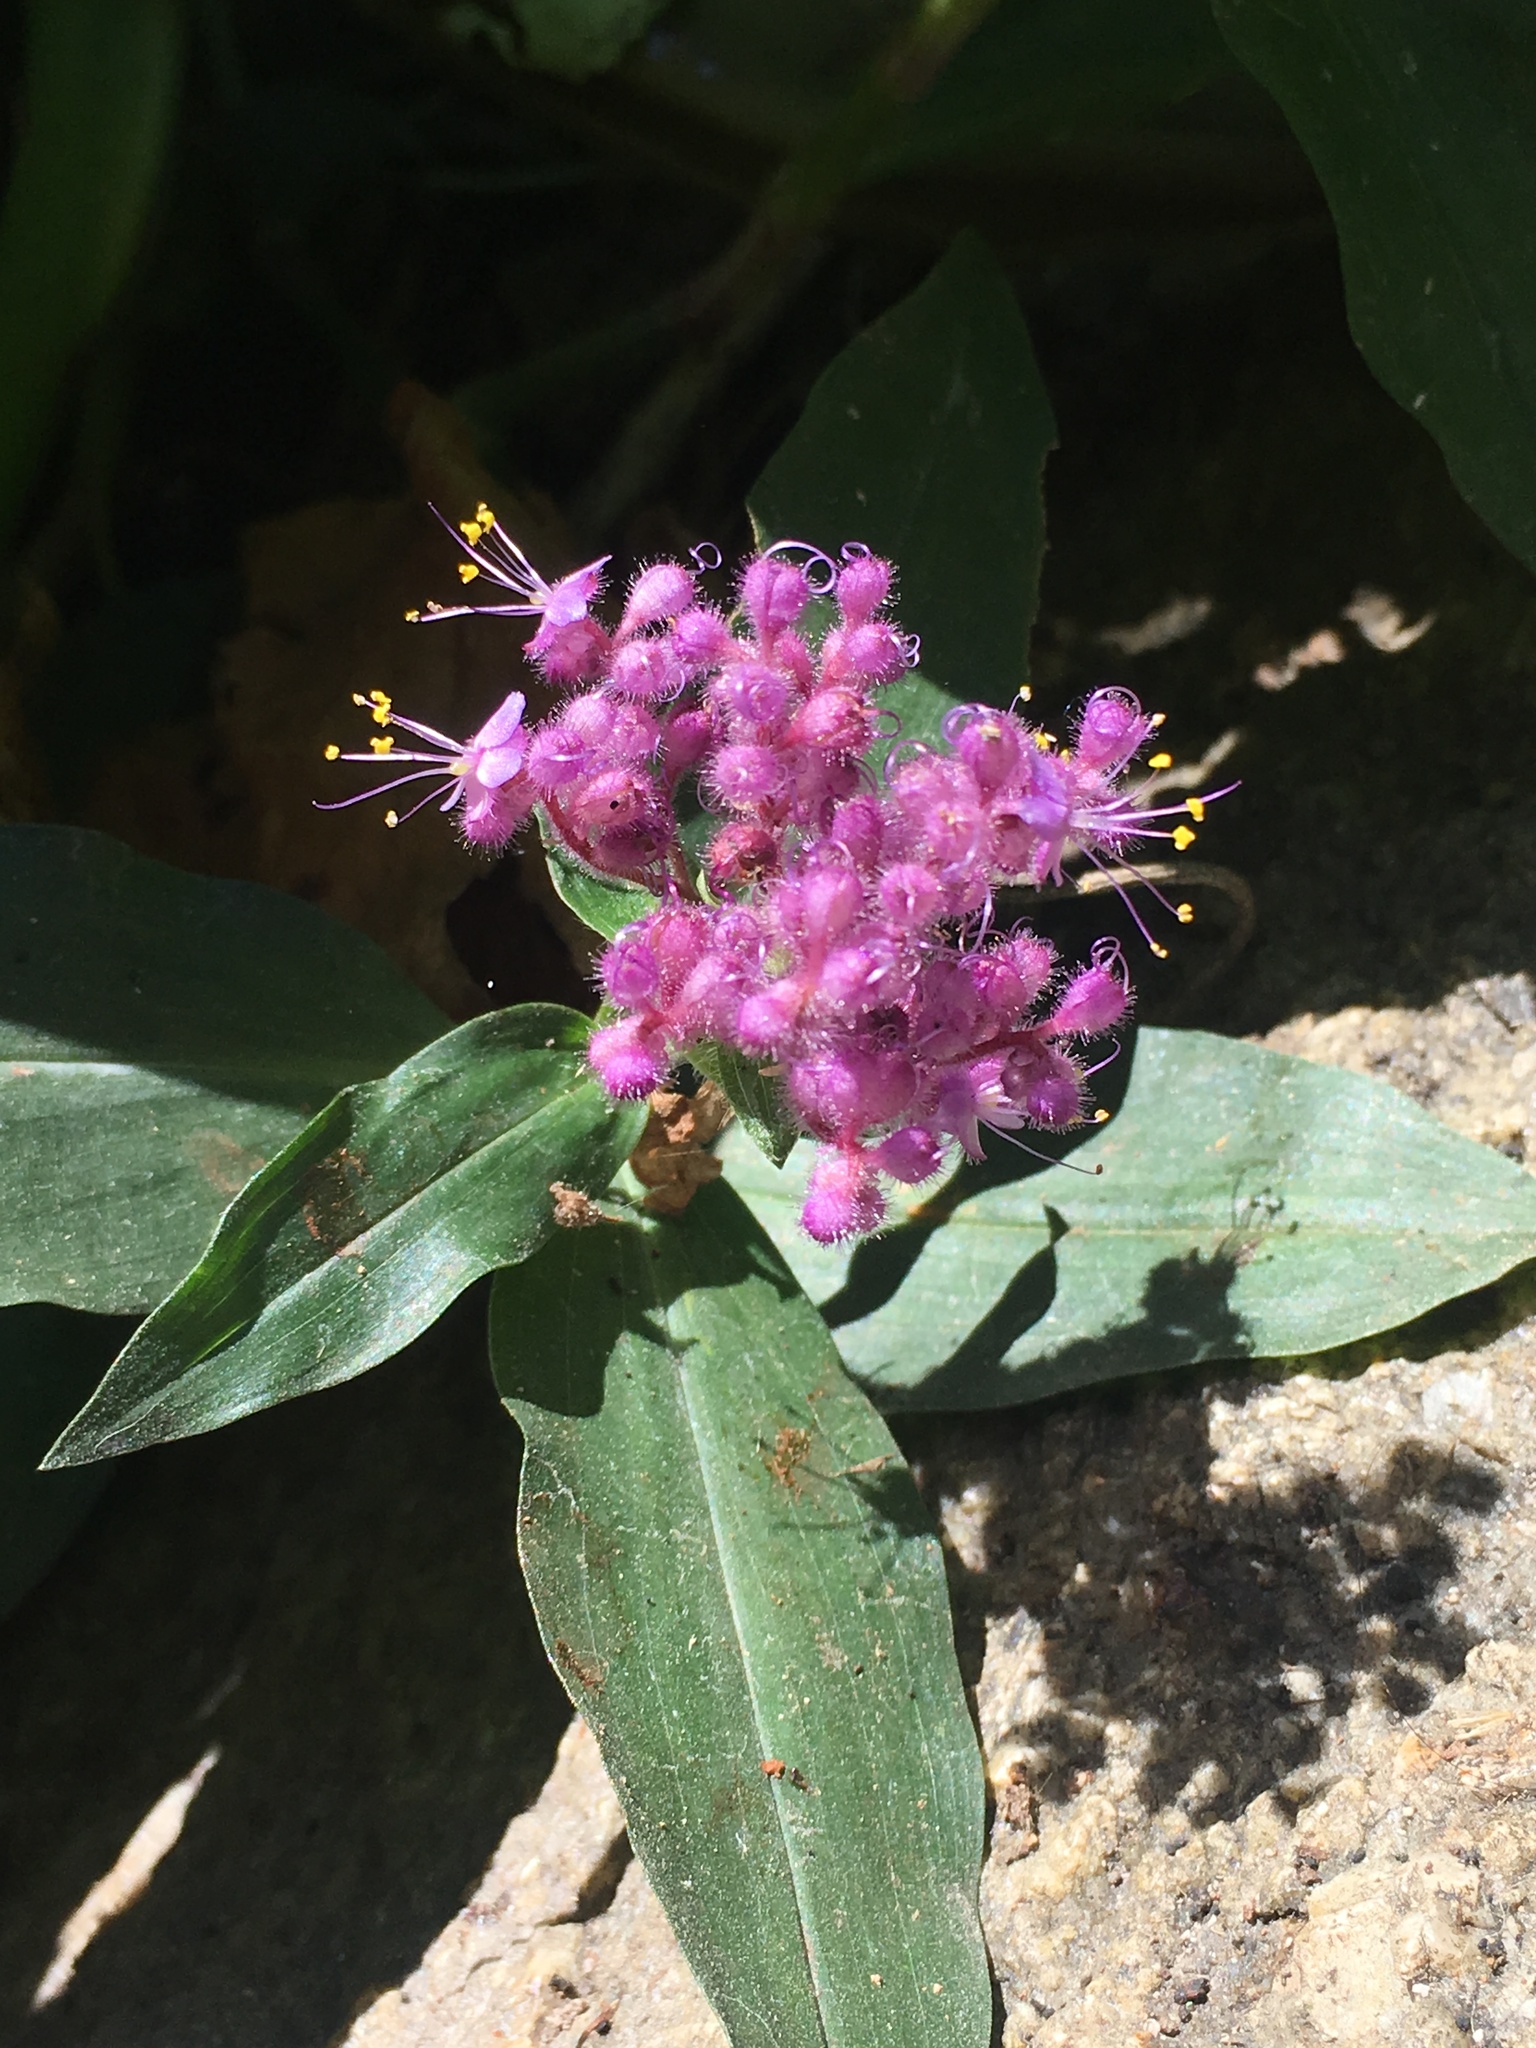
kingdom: Plantae
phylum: Tracheophyta
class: Liliopsida
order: Commelinales
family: Commelinaceae
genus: Floscopa
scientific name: Floscopa scandens
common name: Climbing flower cup
